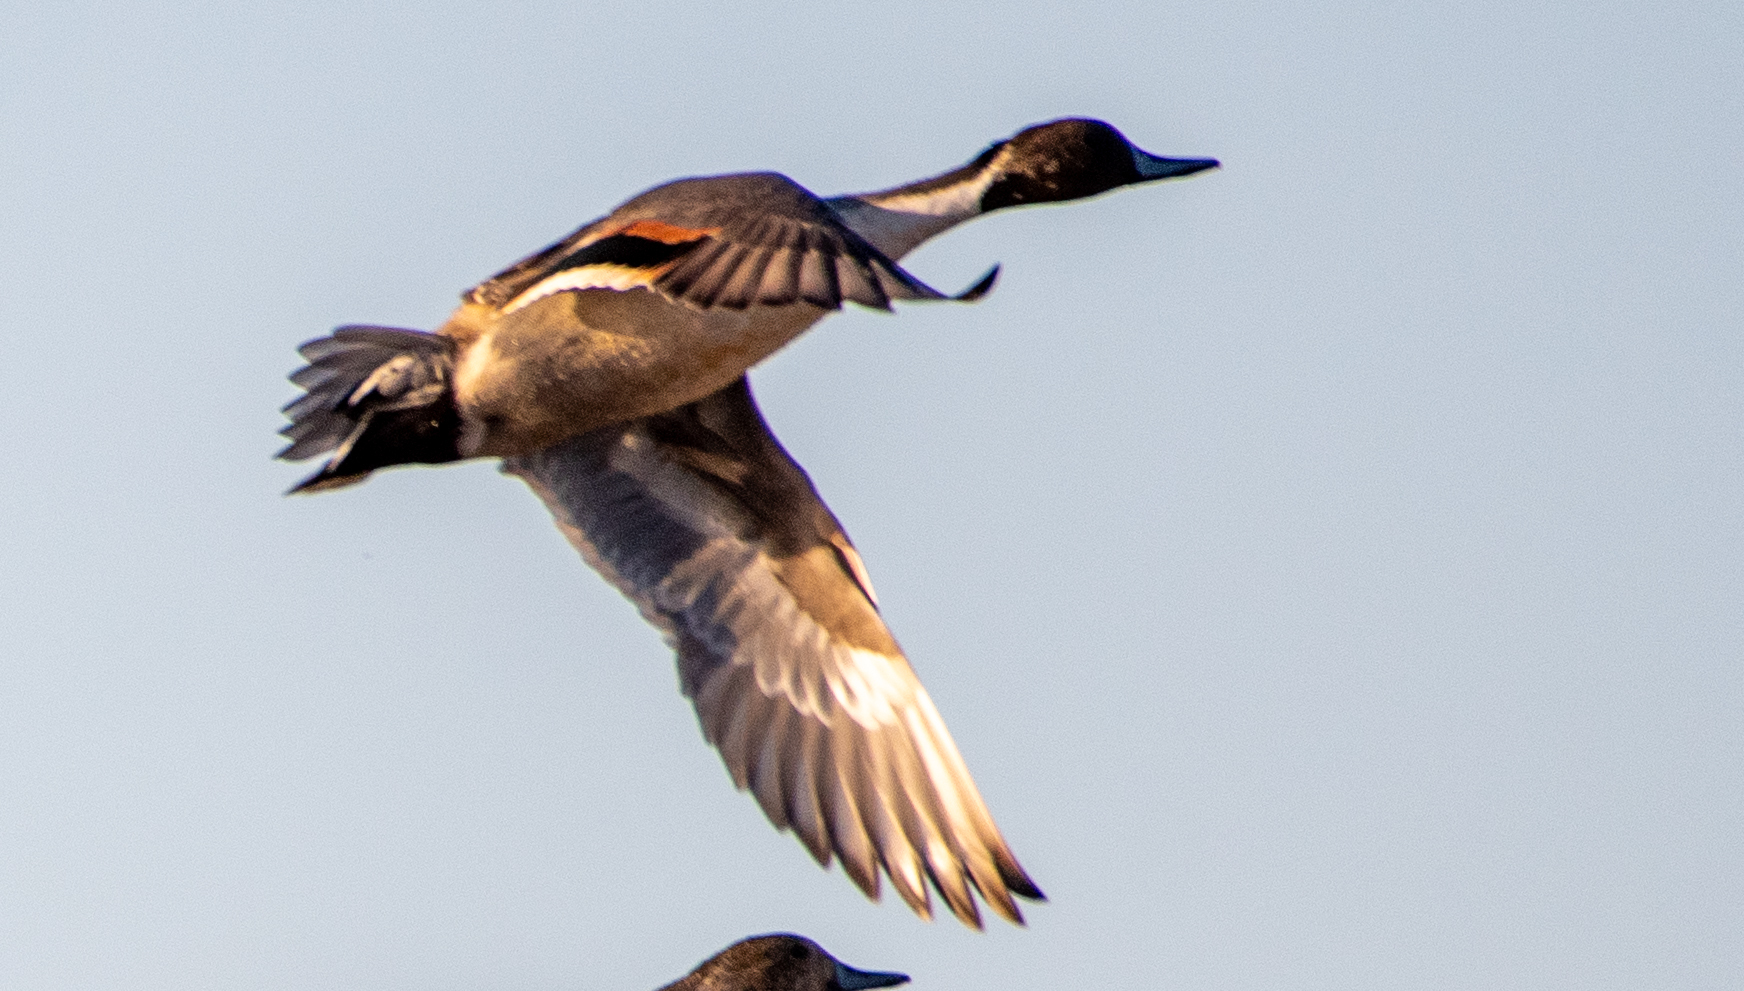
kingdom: Animalia
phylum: Chordata
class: Aves
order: Anseriformes
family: Anatidae
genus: Anas
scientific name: Anas acuta
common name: Northern pintail
